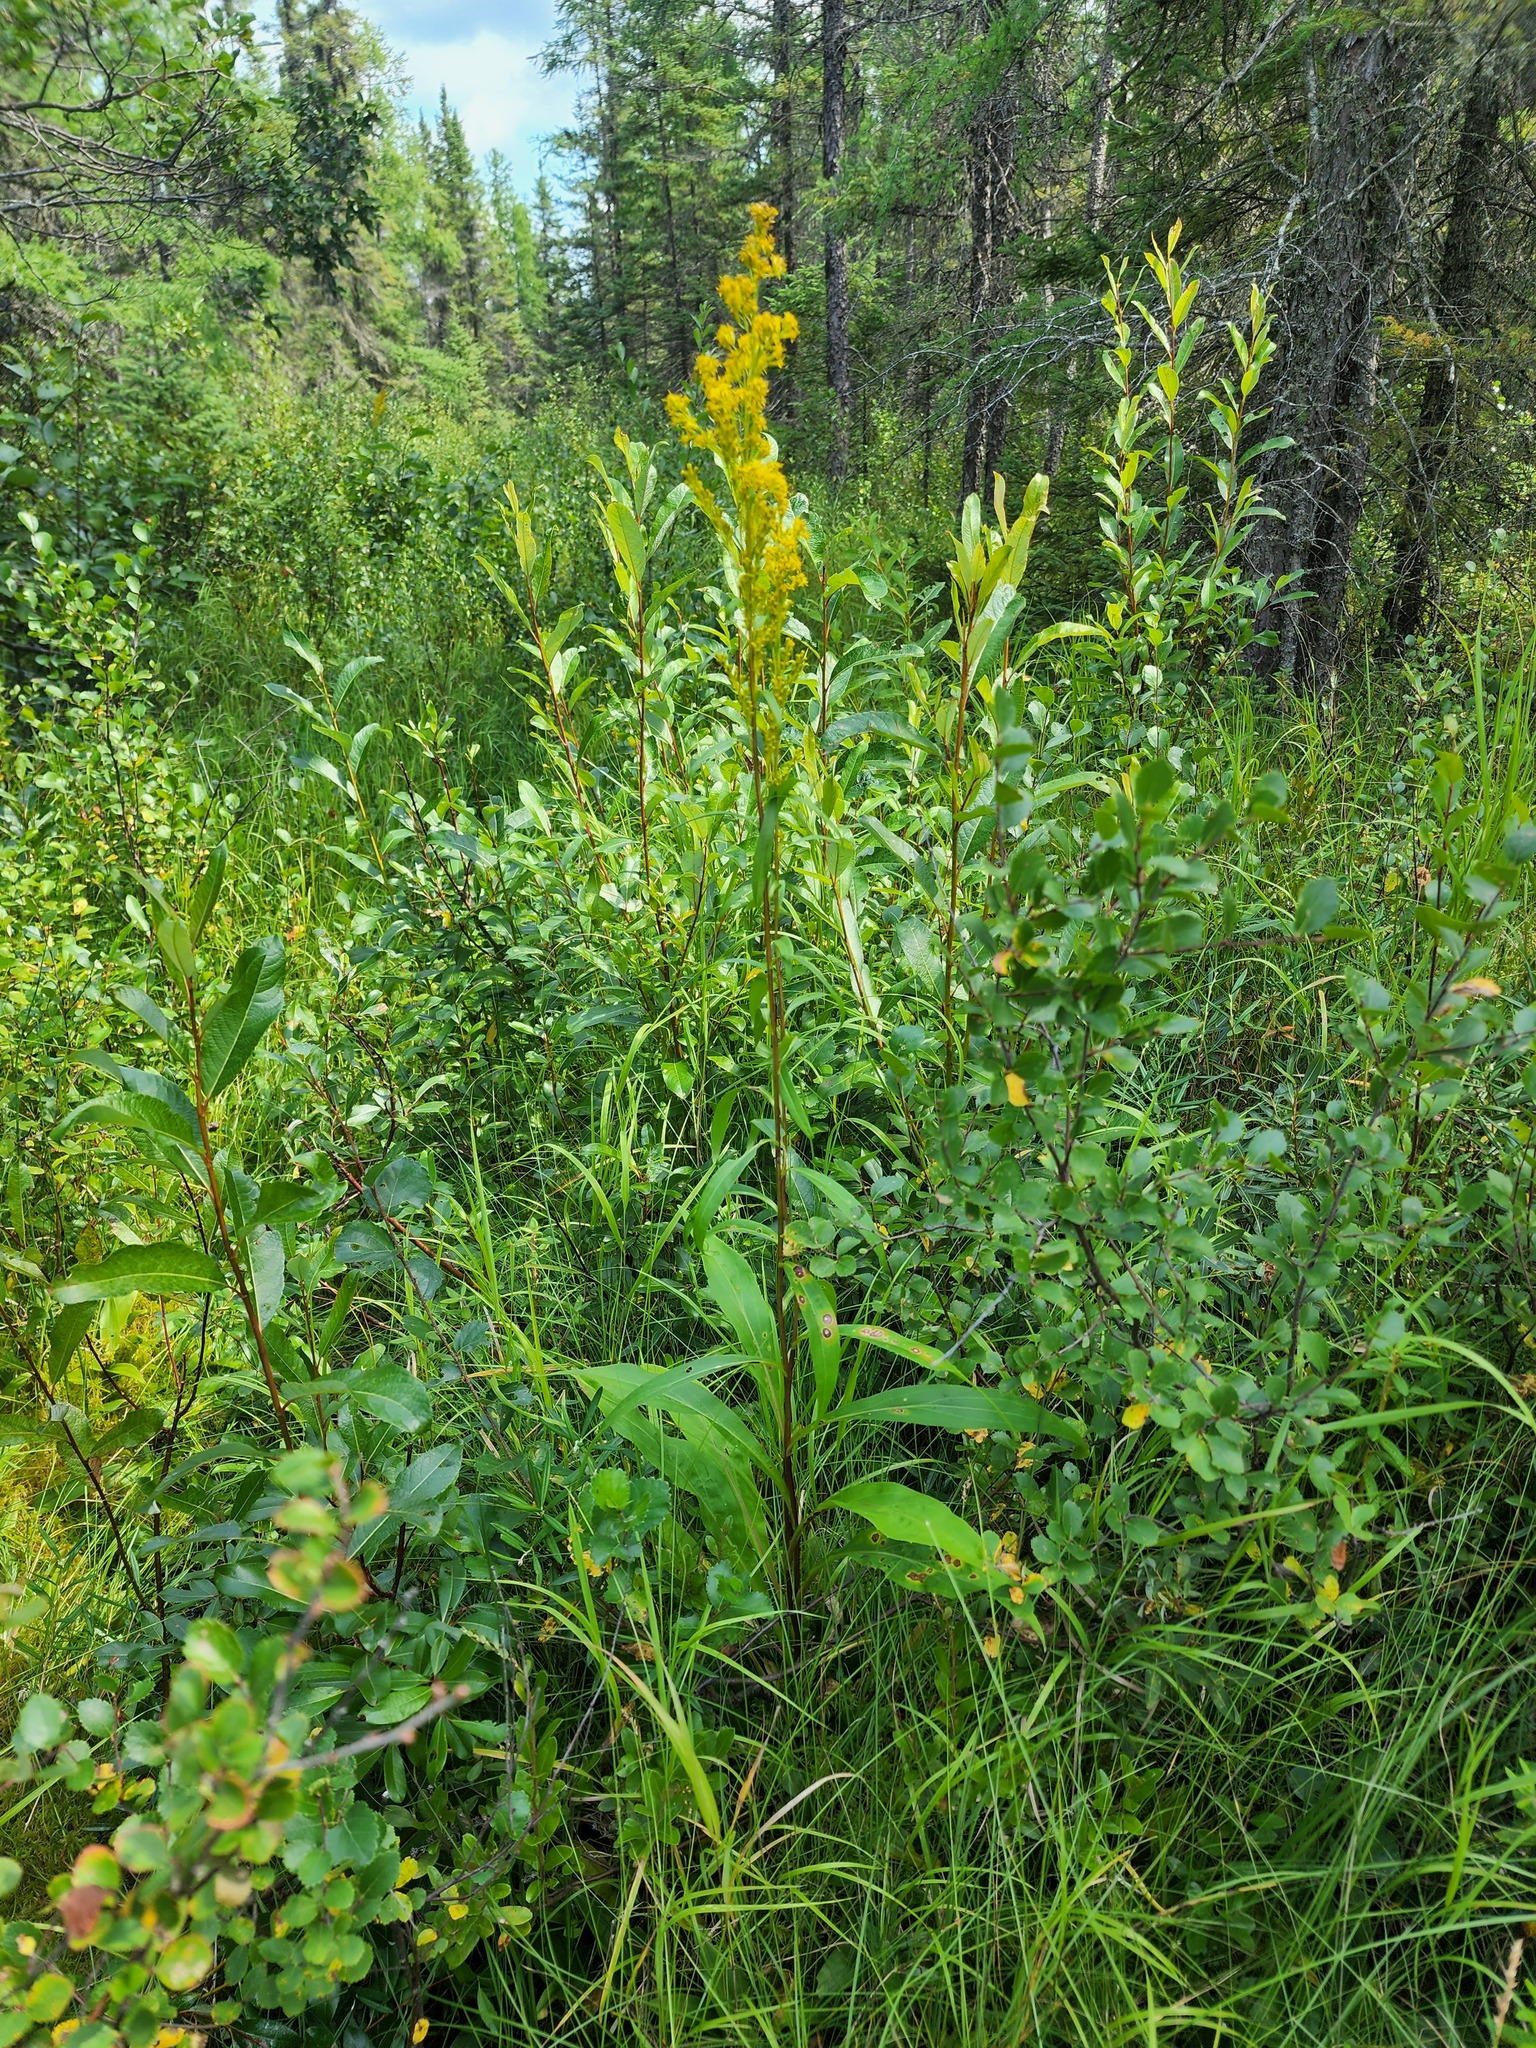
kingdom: Plantae
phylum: Tracheophyta
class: Magnoliopsida
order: Asterales
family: Asteraceae
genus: Solidago
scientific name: Solidago uliginosa
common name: Bog goldenrod
